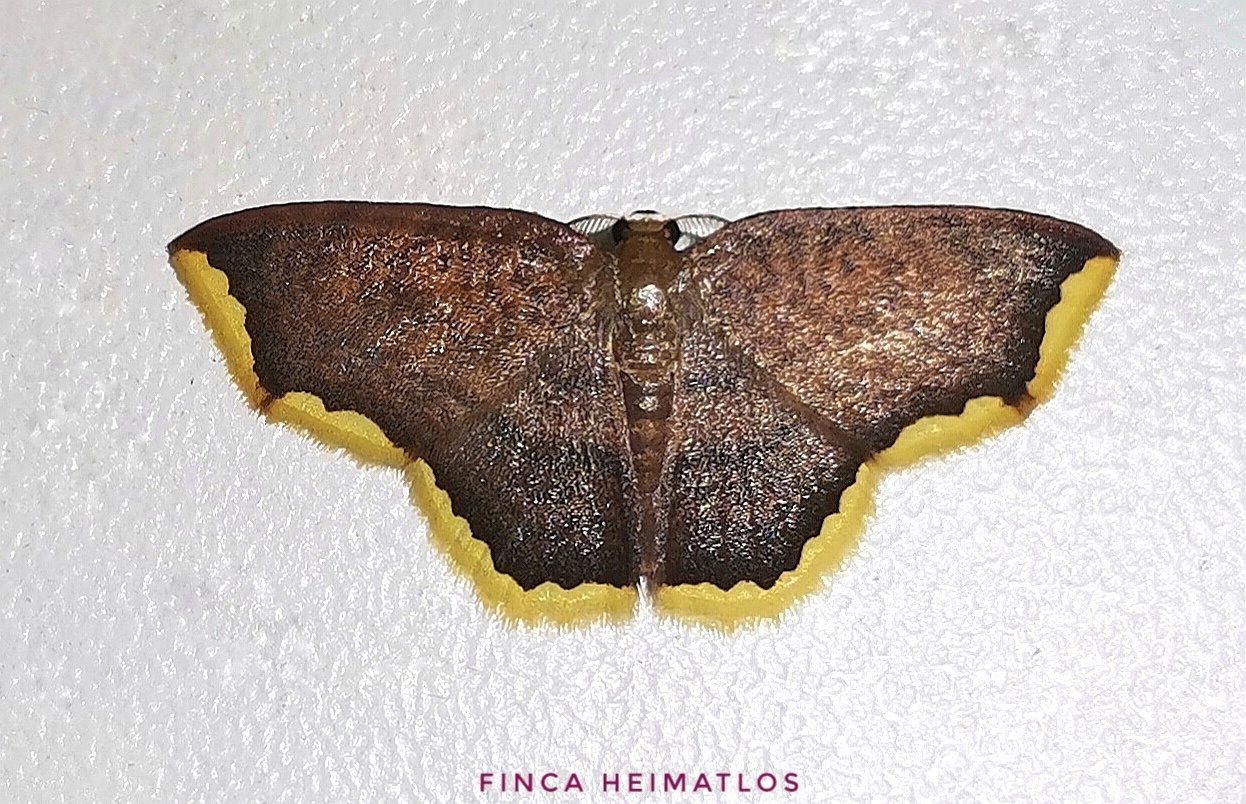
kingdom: Animalia
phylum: Arthropoda
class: Insecta
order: Lepidoptera
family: Geometridae
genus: Eois
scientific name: Eois catana
